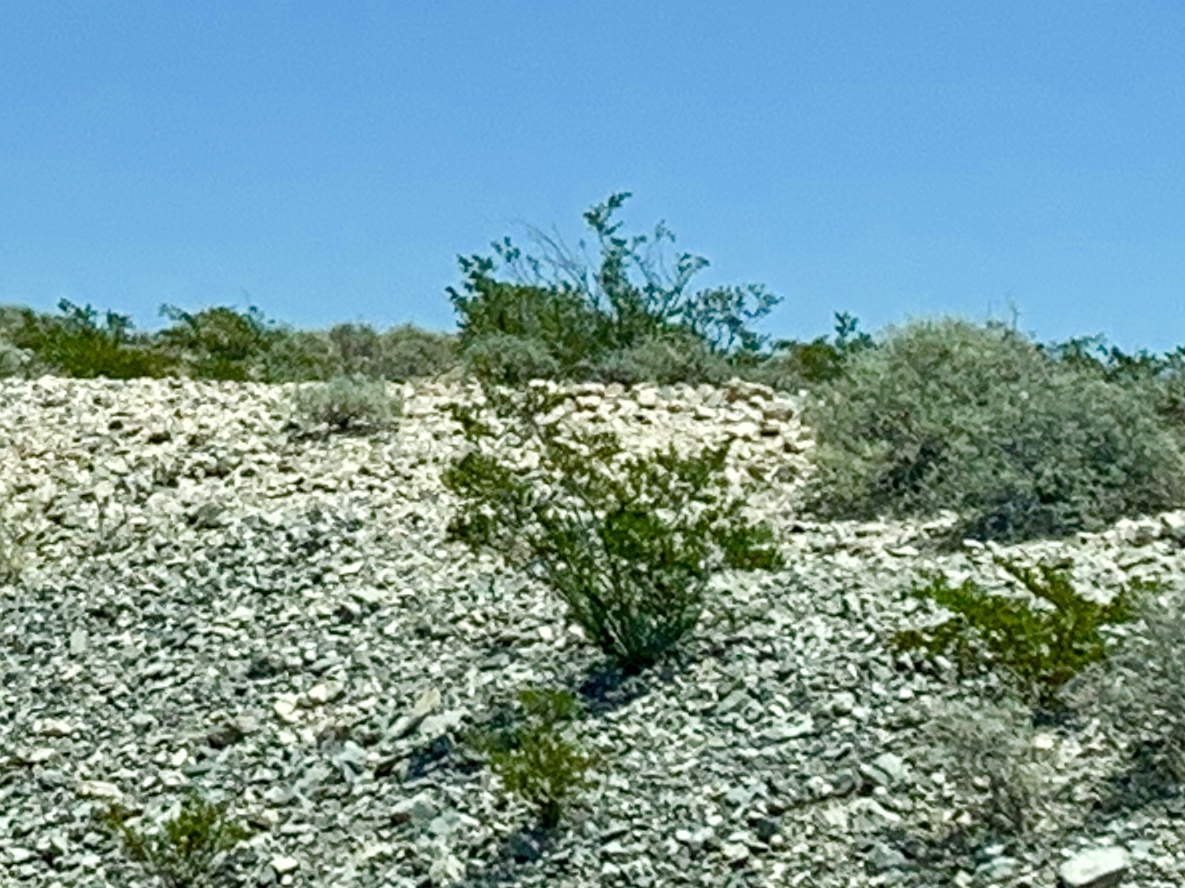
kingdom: Plantae
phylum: Tracheophyta
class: Magnoliopsida
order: Zygophyllales
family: Zygophyllaceae
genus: Larrea
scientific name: Larrea tridentata
